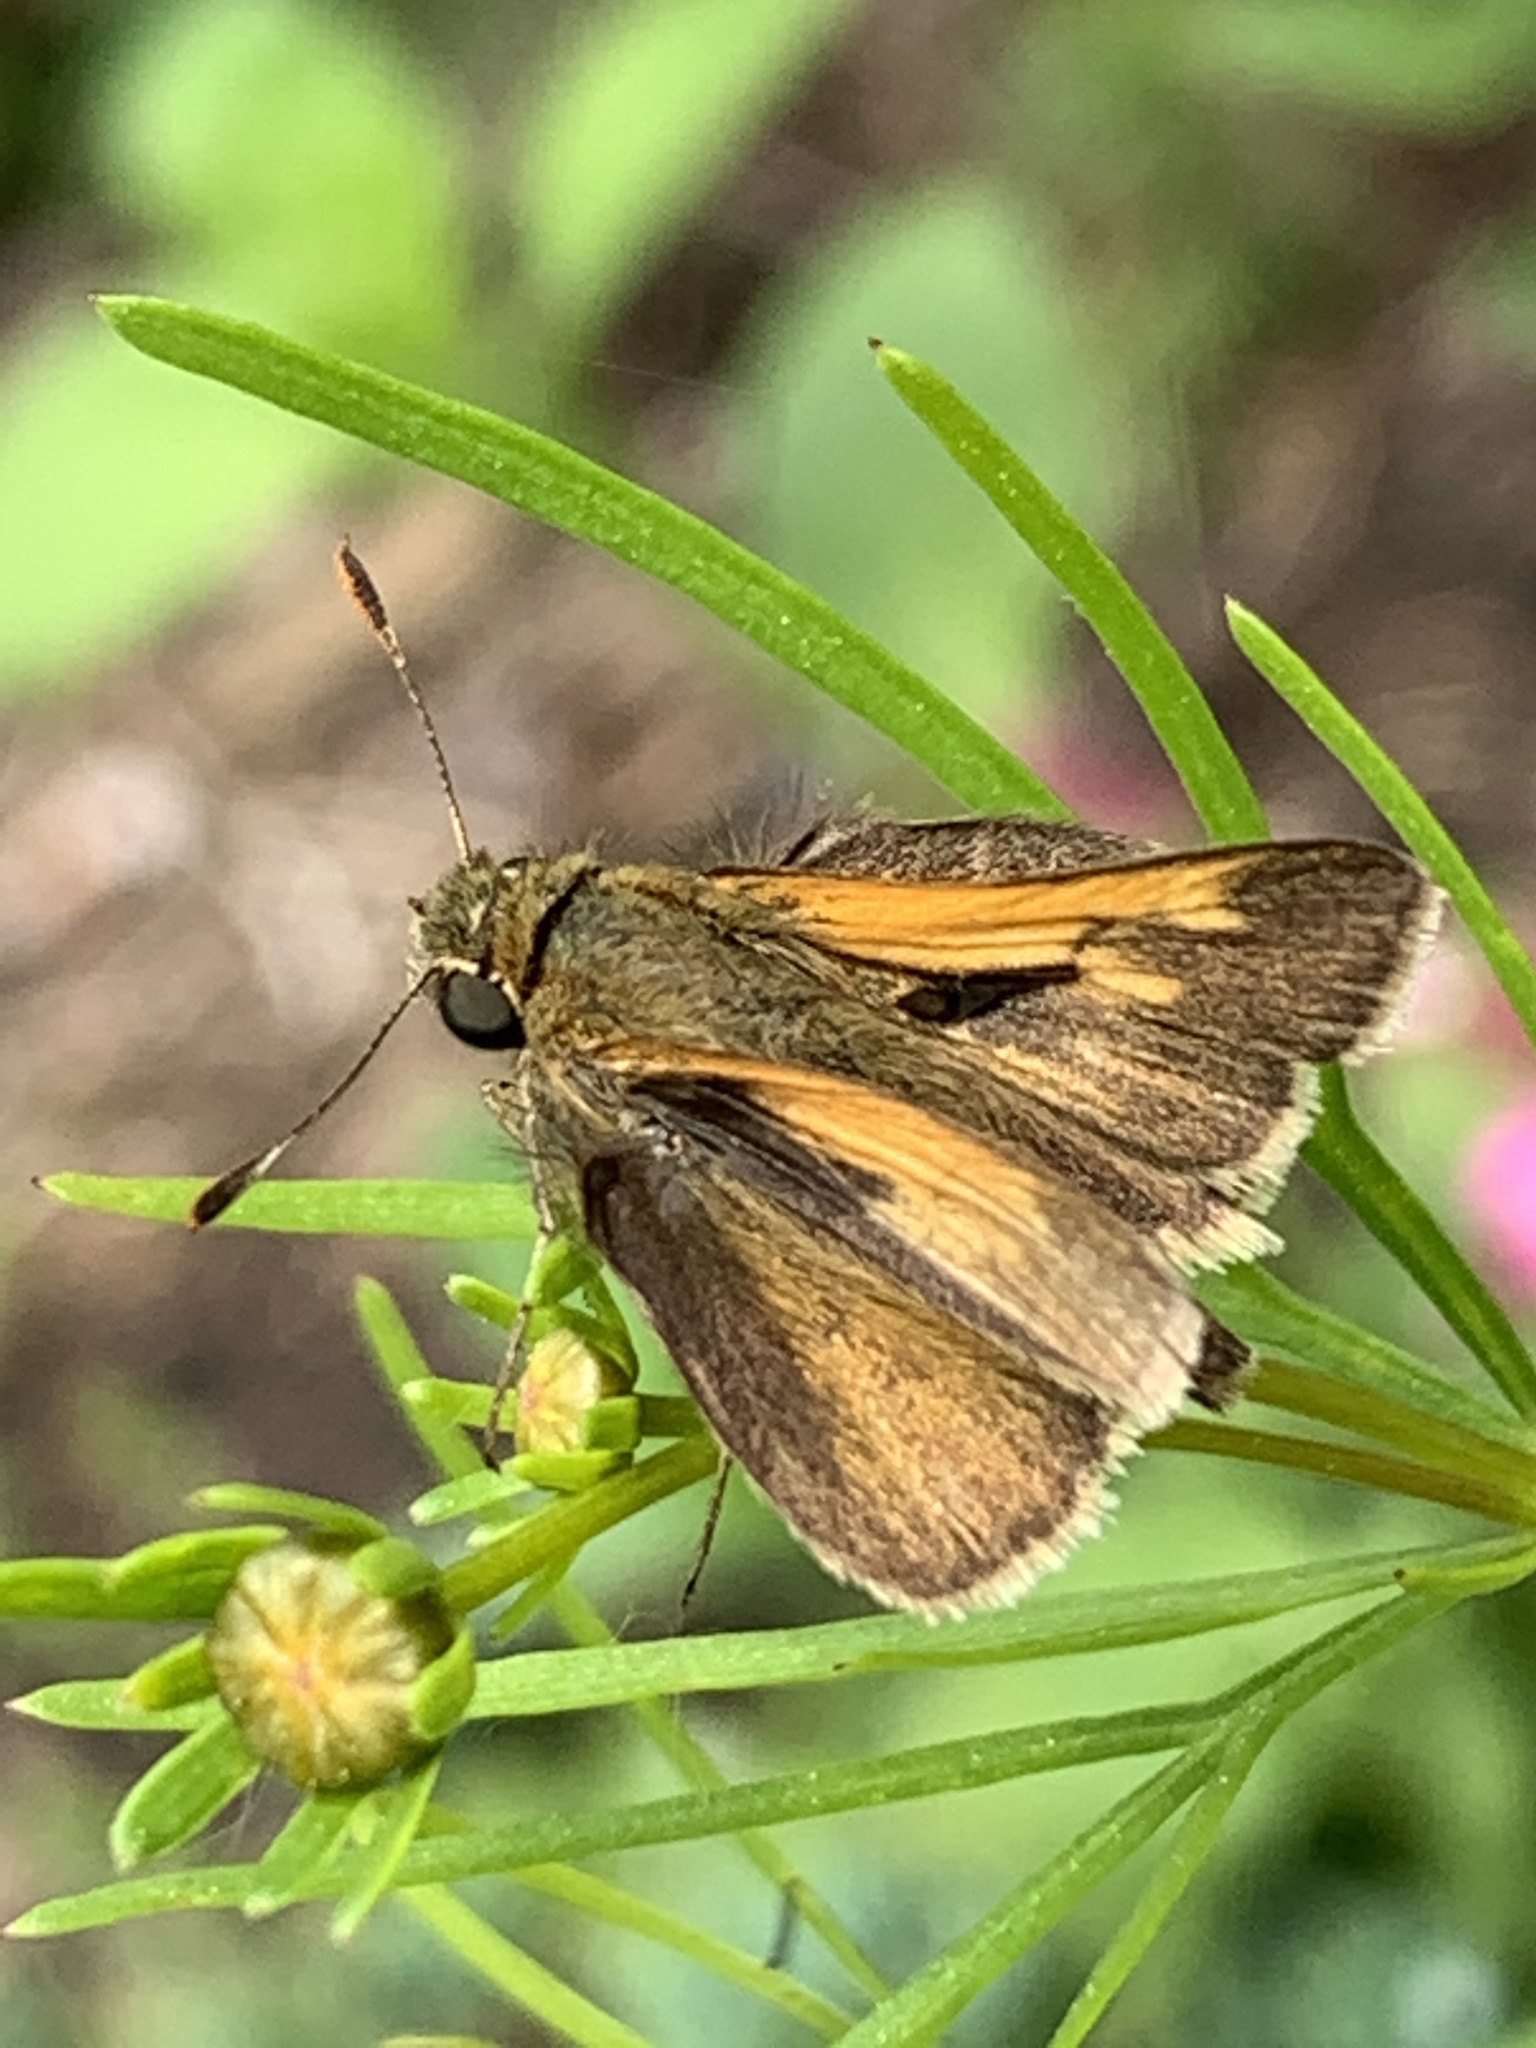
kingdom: Animalia
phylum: Arthropoda
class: Insecta
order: Lepidoptera
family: Hesperiidae
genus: Polites
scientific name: Polites themistocles
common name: Tawny-edged skipper
